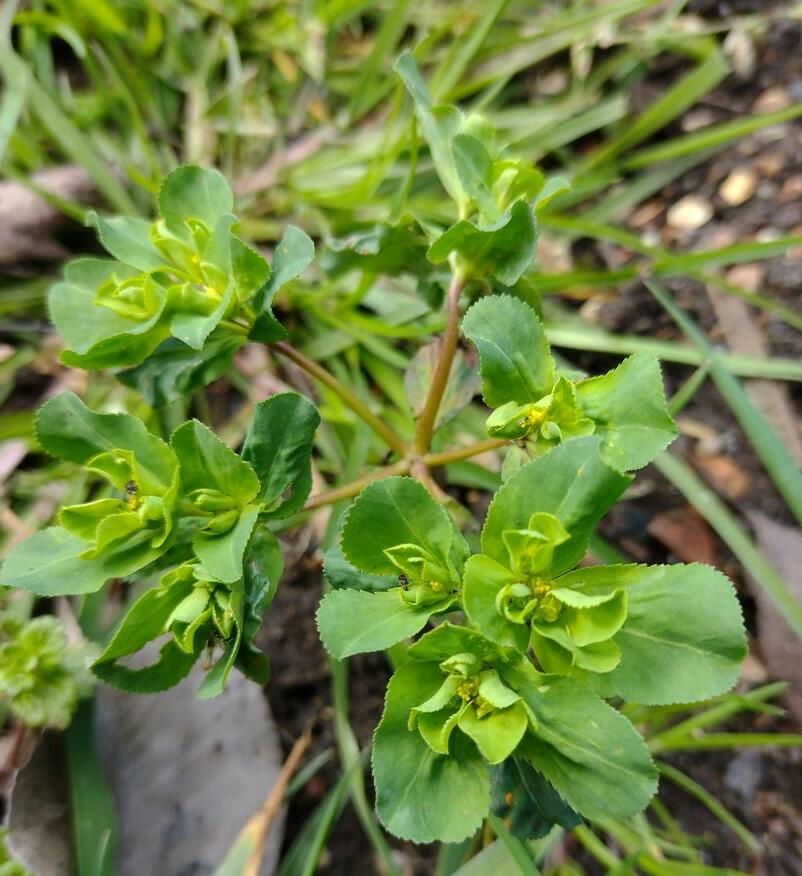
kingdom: Plantae
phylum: Tracheophyta
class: Magnoliopsida
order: Malpighiales
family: Euphorbiaceae
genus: Euphorbia
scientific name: Euphorbia helioscopia
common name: Sun spurge
